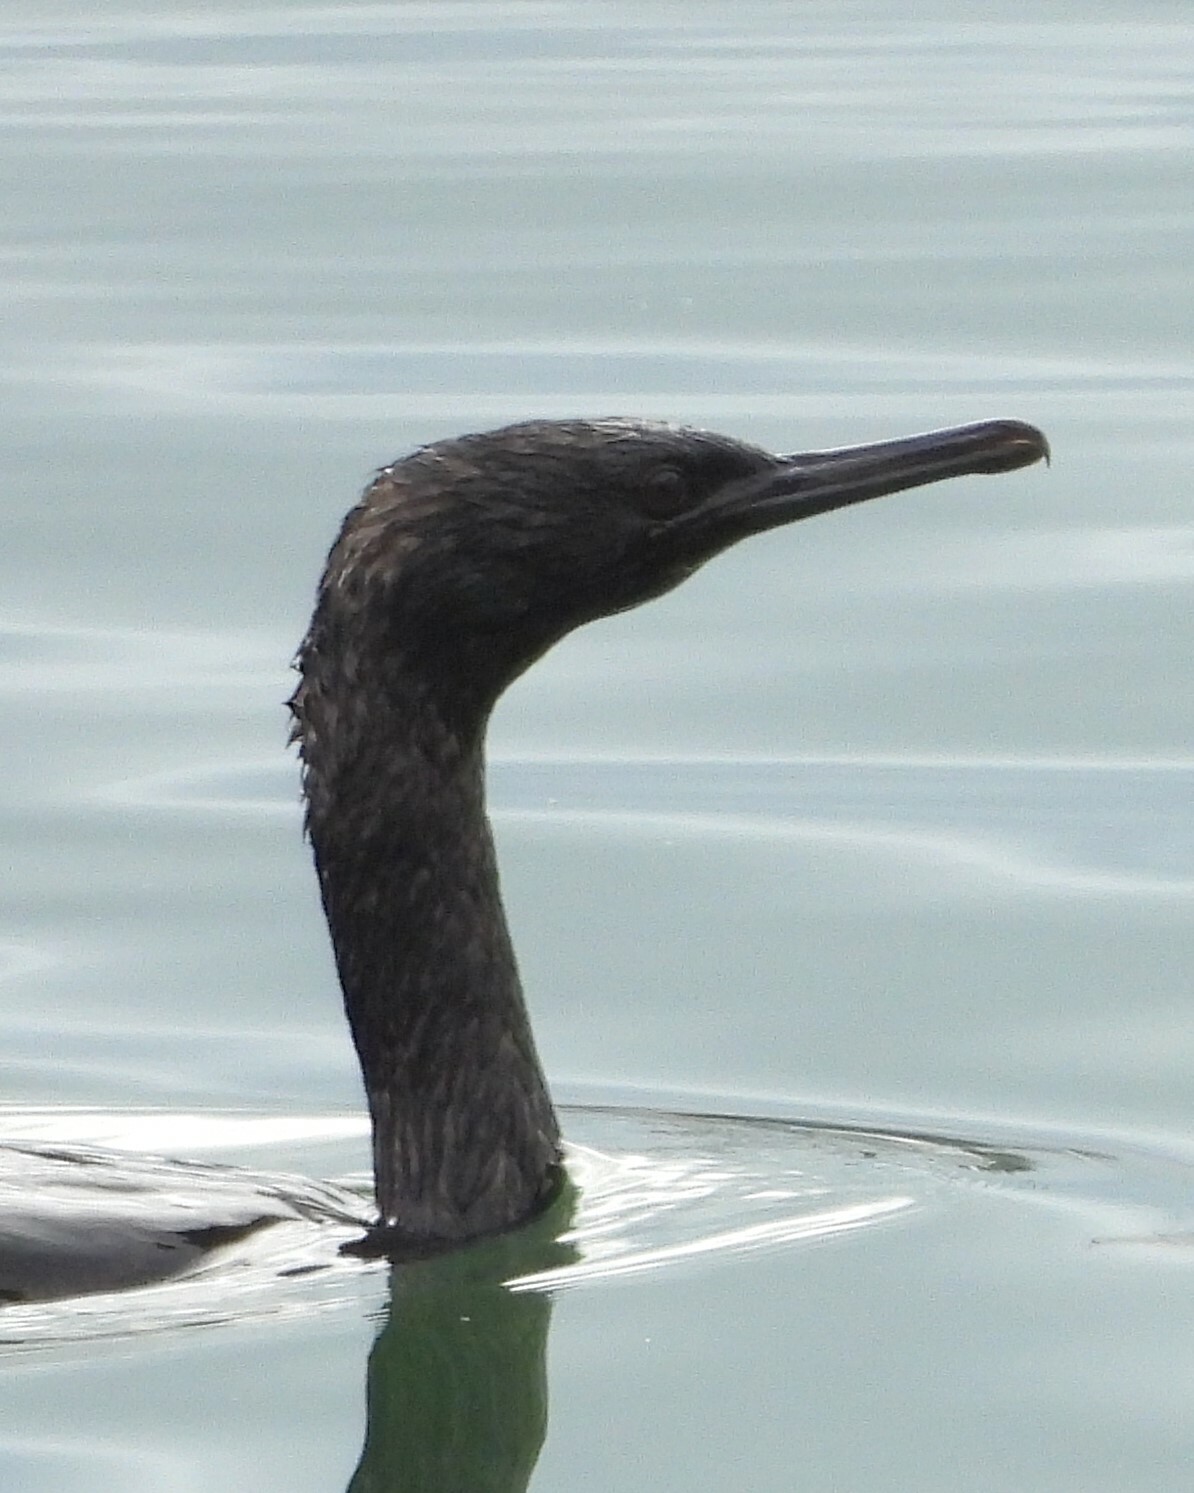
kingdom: Animalia
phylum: Chordata
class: Aves
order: Suliformes
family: Phalacrocoracidae
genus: Phalacrocorax
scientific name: Phalacrocorax pelagicus
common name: Pelagic cormorant
